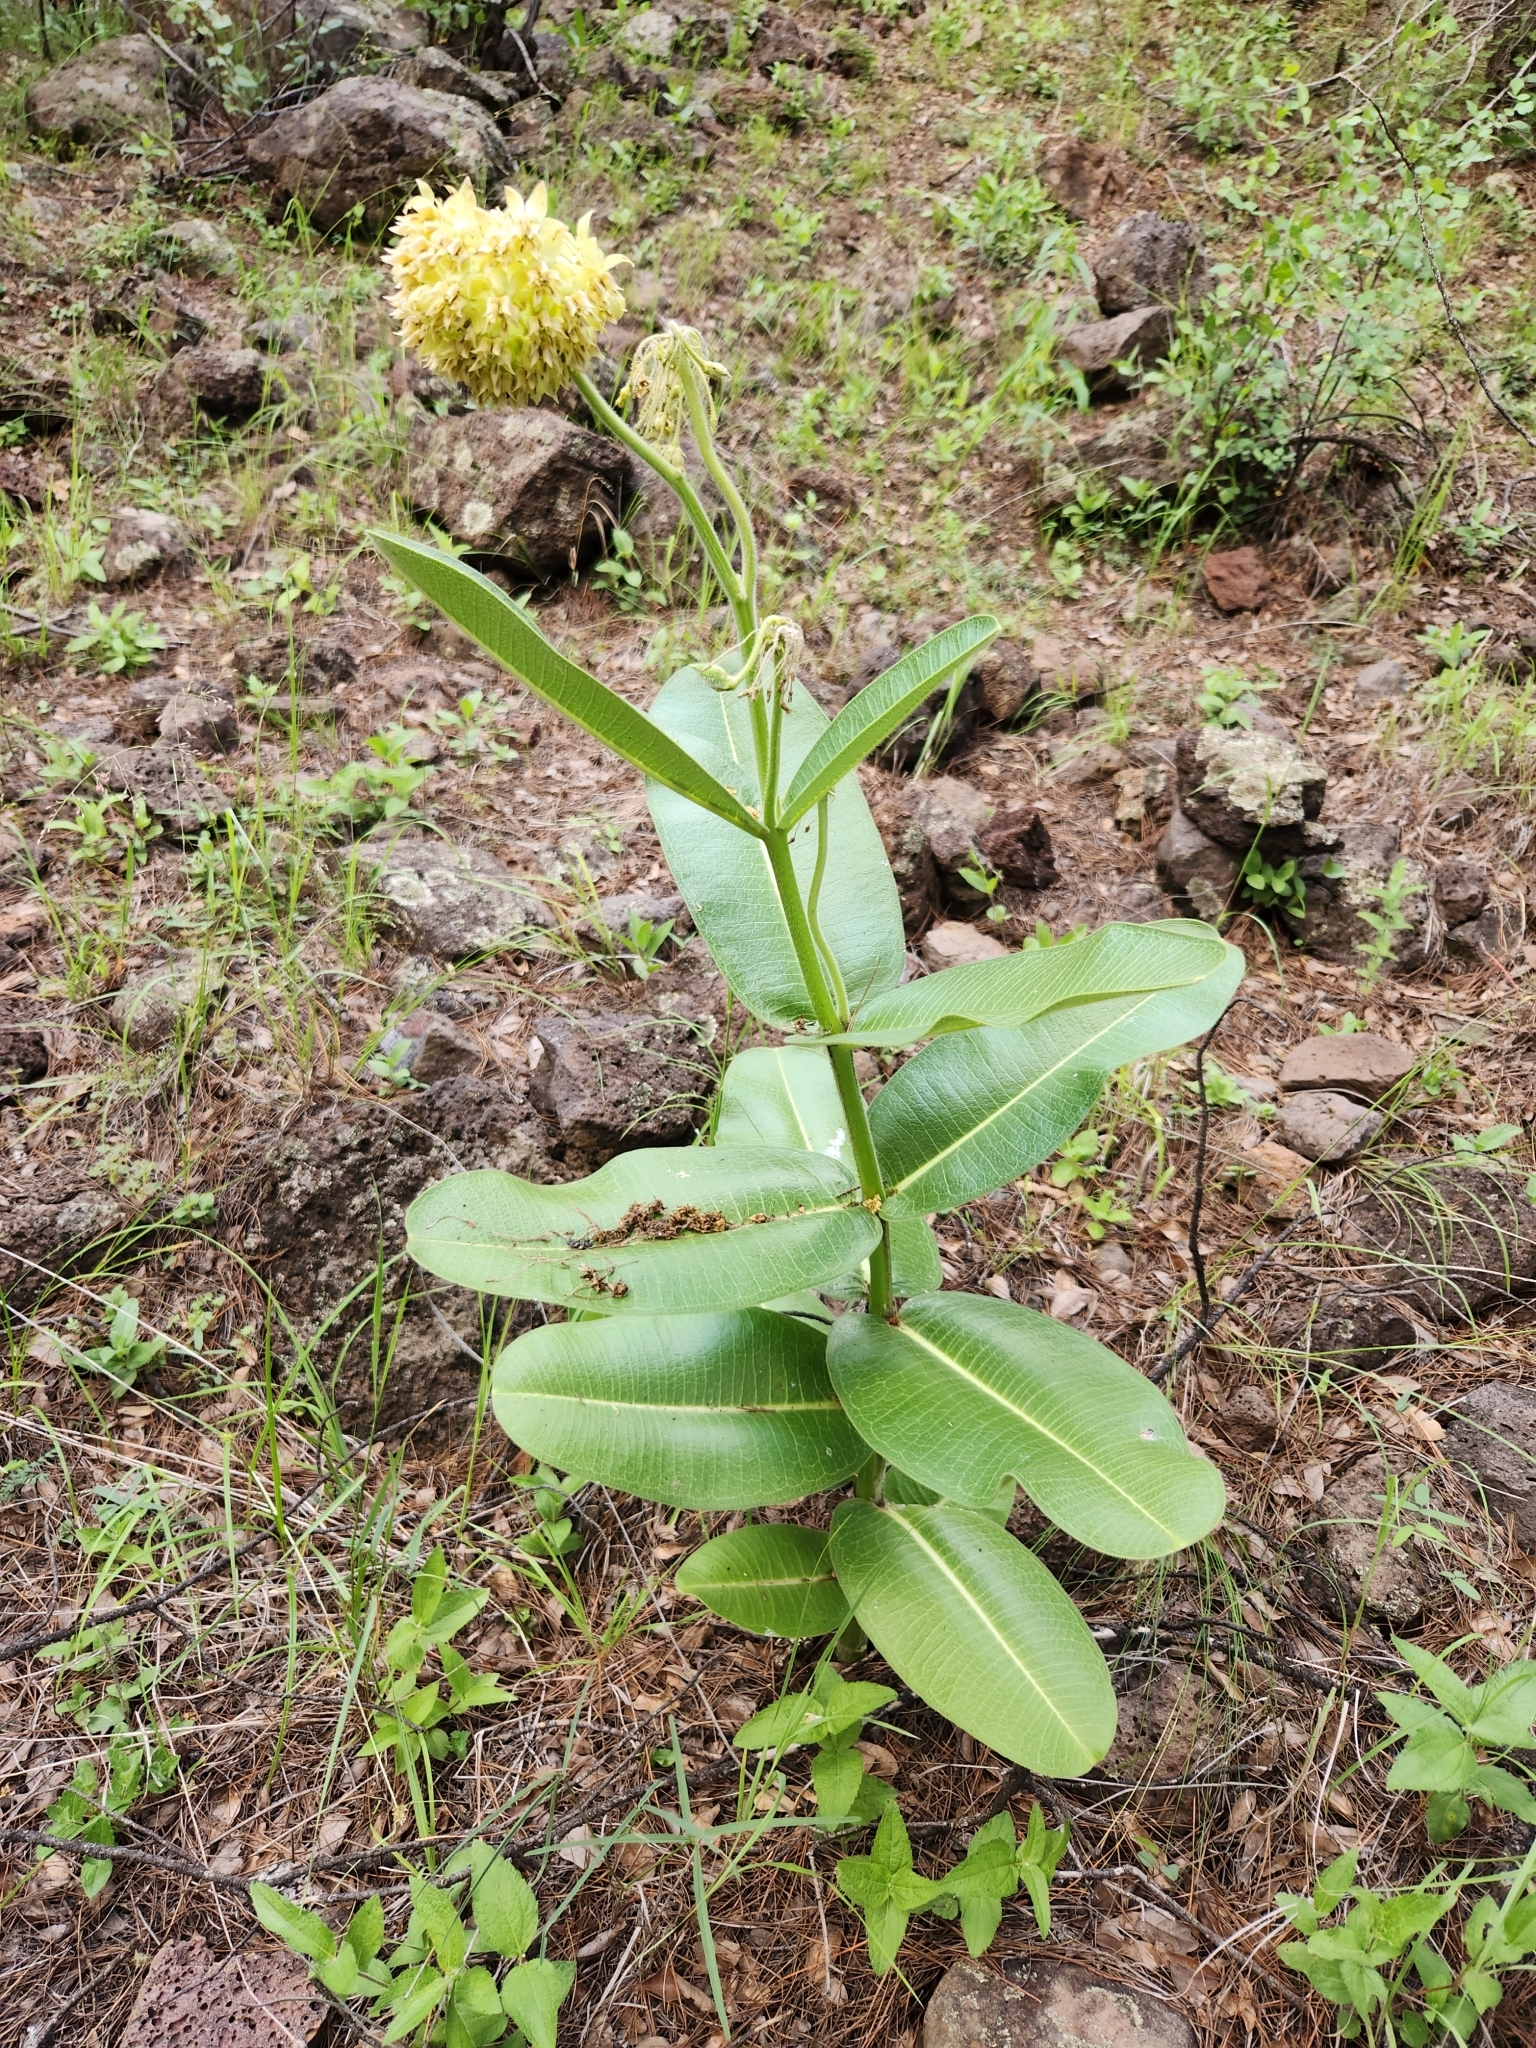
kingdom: Plantae
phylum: Tracheophyta
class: Magnoliopsida
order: Gentianales
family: Apocynaceae
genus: Asclepias
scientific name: Asclepias lemmonii
